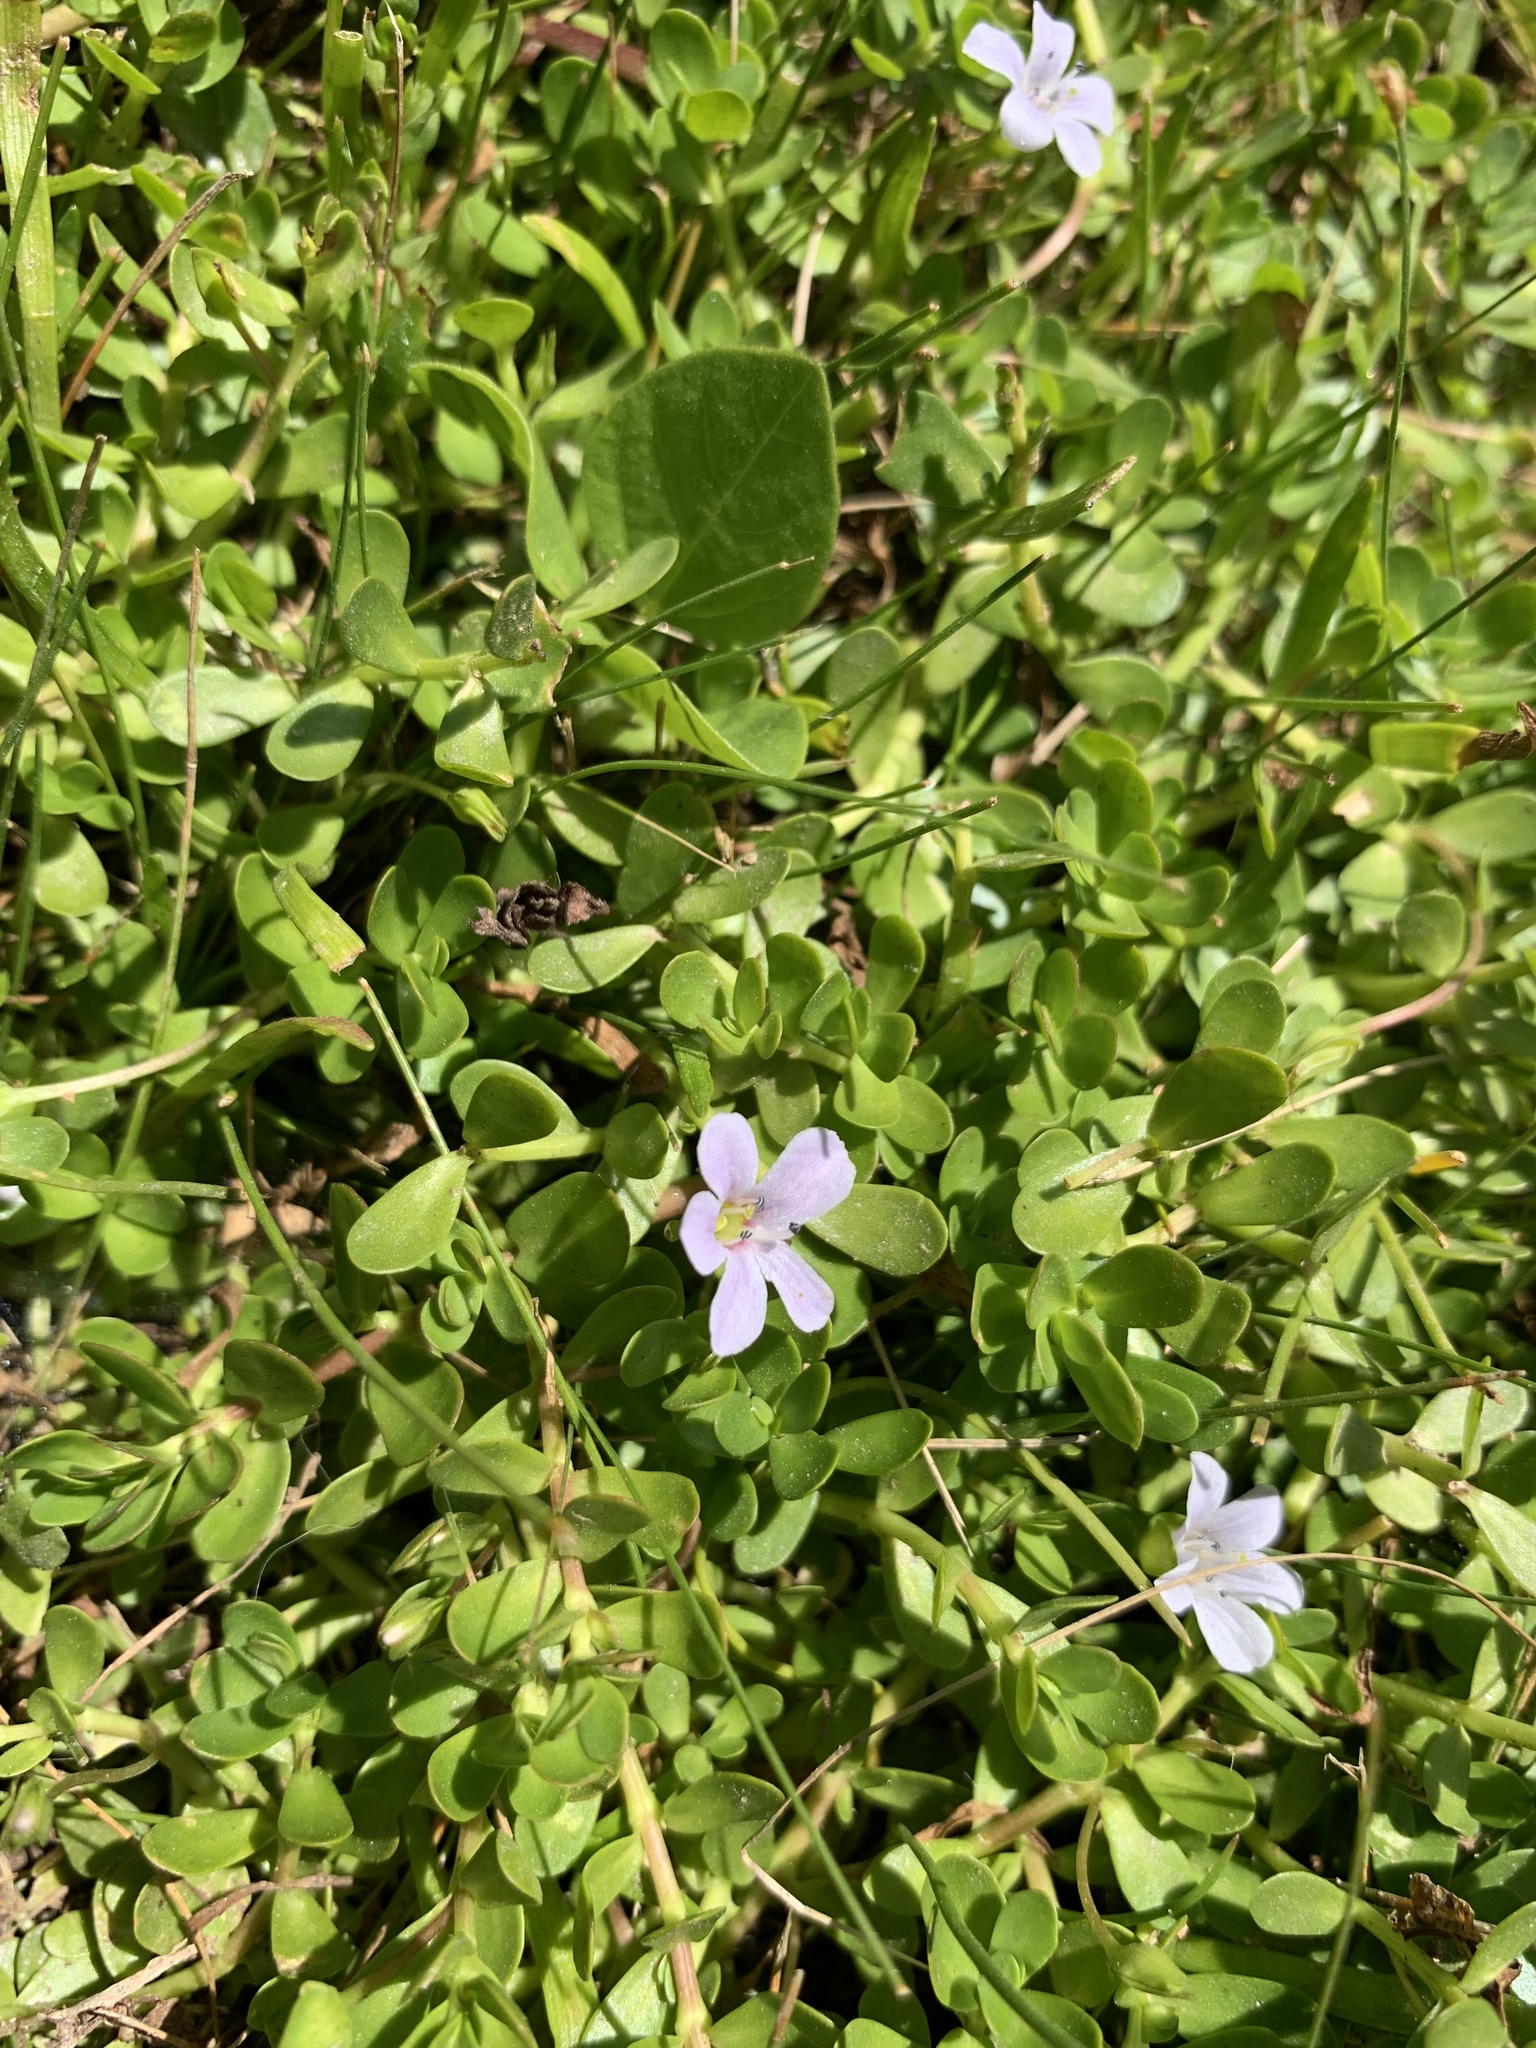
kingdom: Plantae
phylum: Tracheophyta
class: Magnoliopsida
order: Lamiales
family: Plantaginaceae
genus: Bacopa
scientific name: Bacopa monnieri
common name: Indian-pennywort
